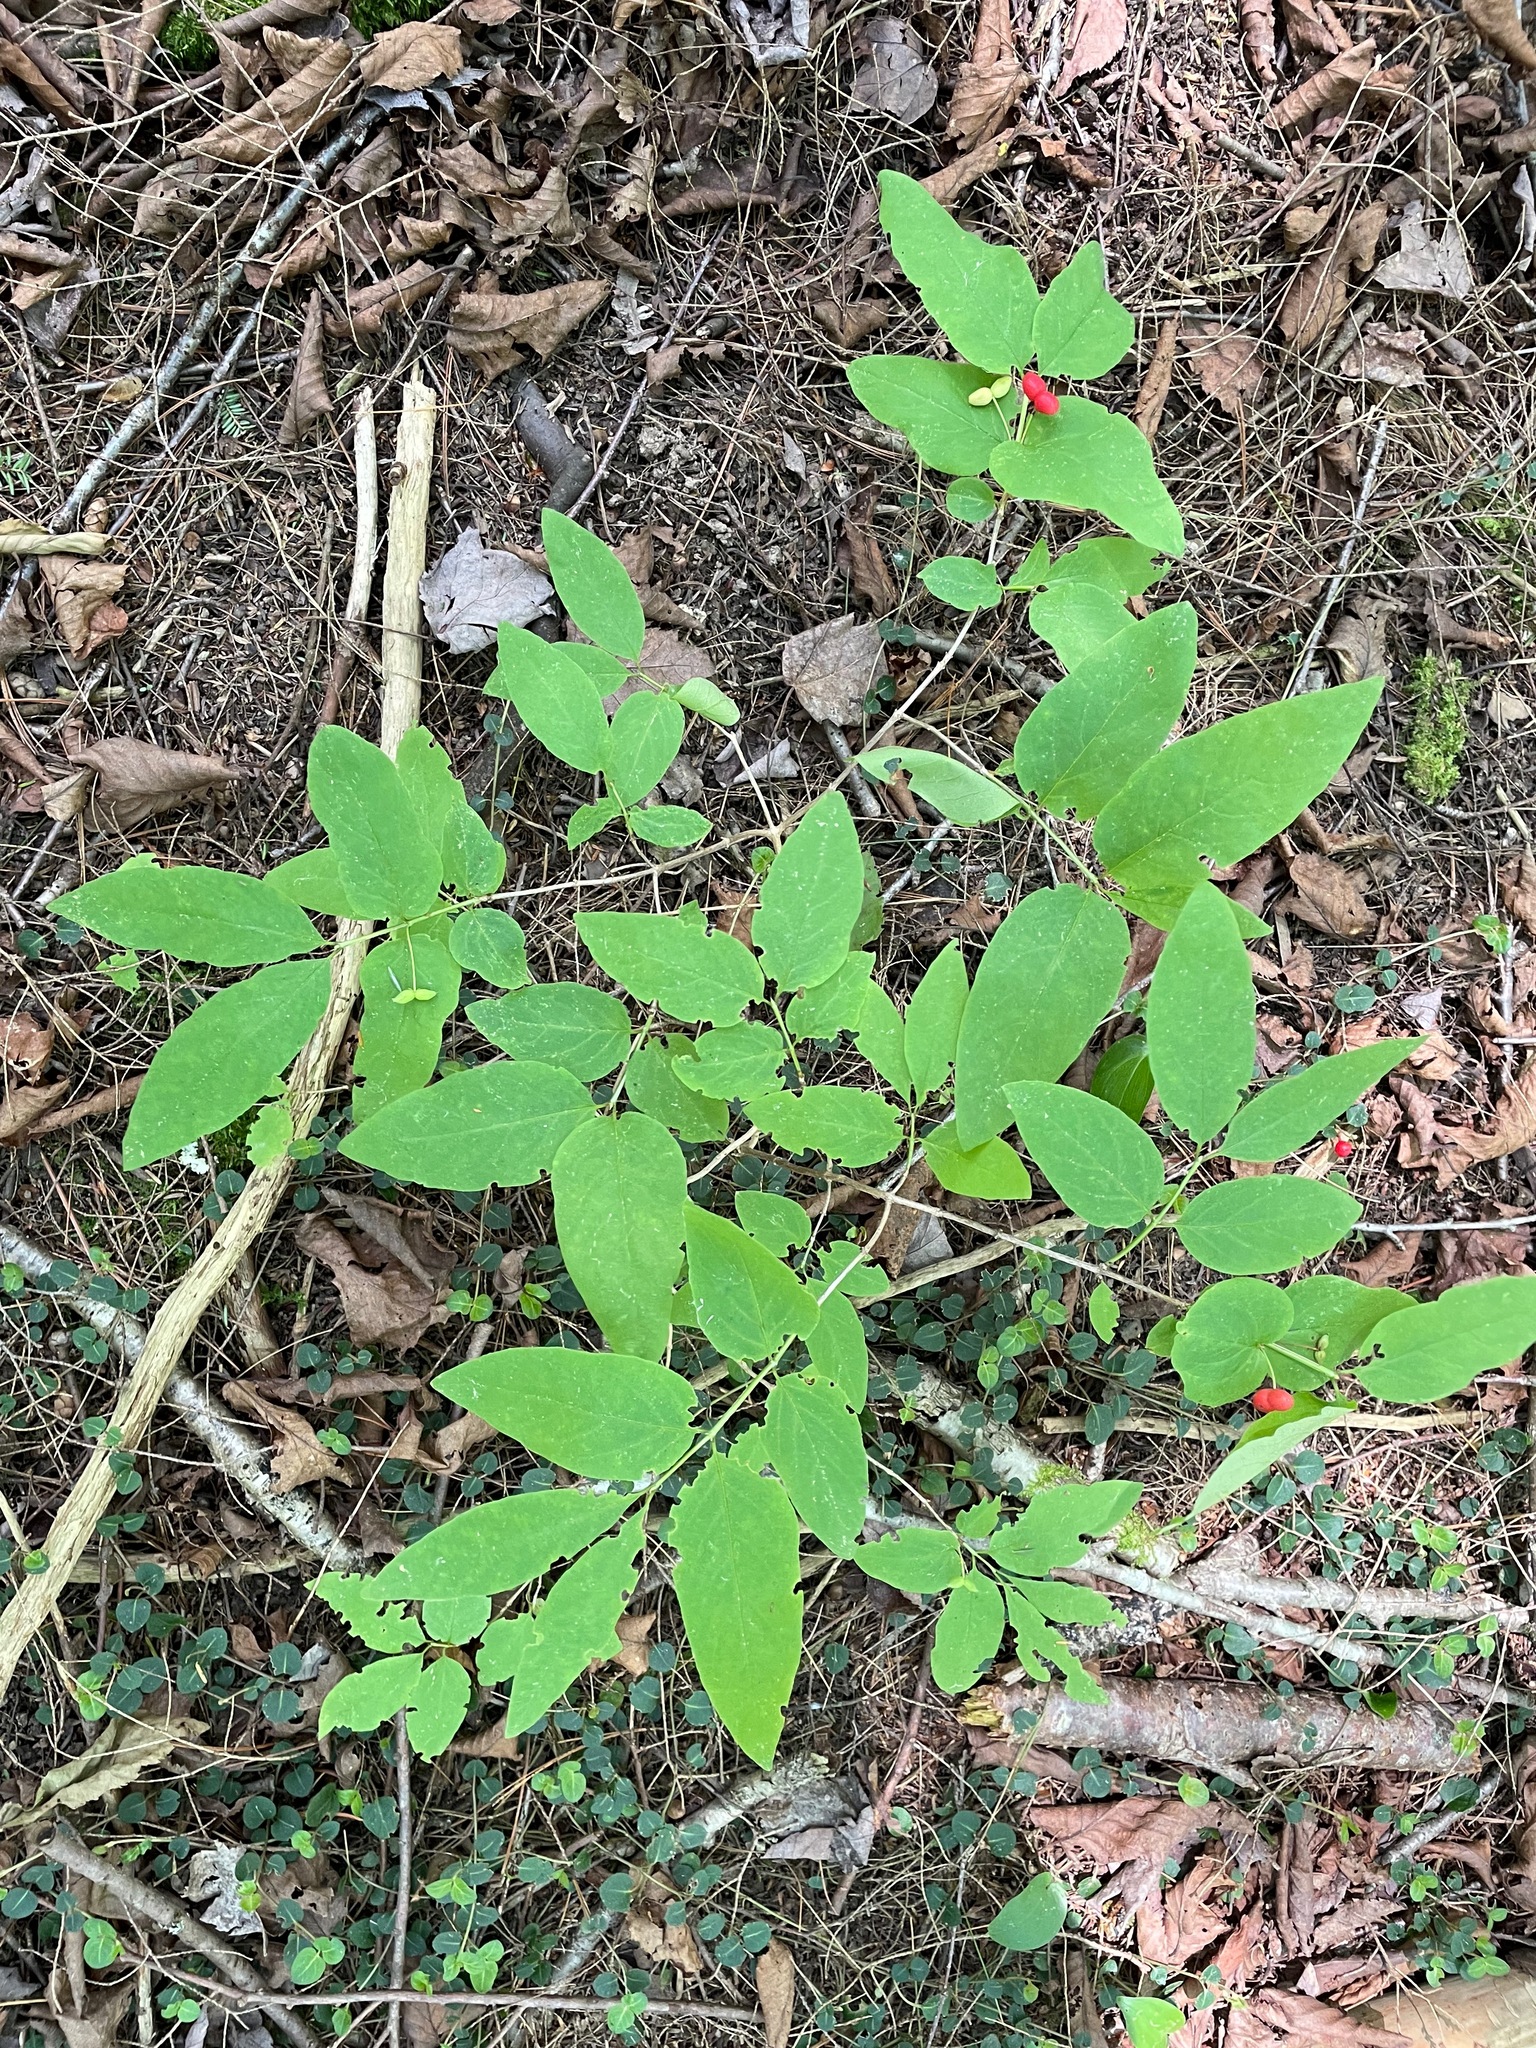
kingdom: Plantae
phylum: Tracheophyta
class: Magnoliopsida
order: Dipsacales
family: Caprifoliaceae
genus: Lonicera
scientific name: Lonicera canadensis
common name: American fly-honeysuckle
